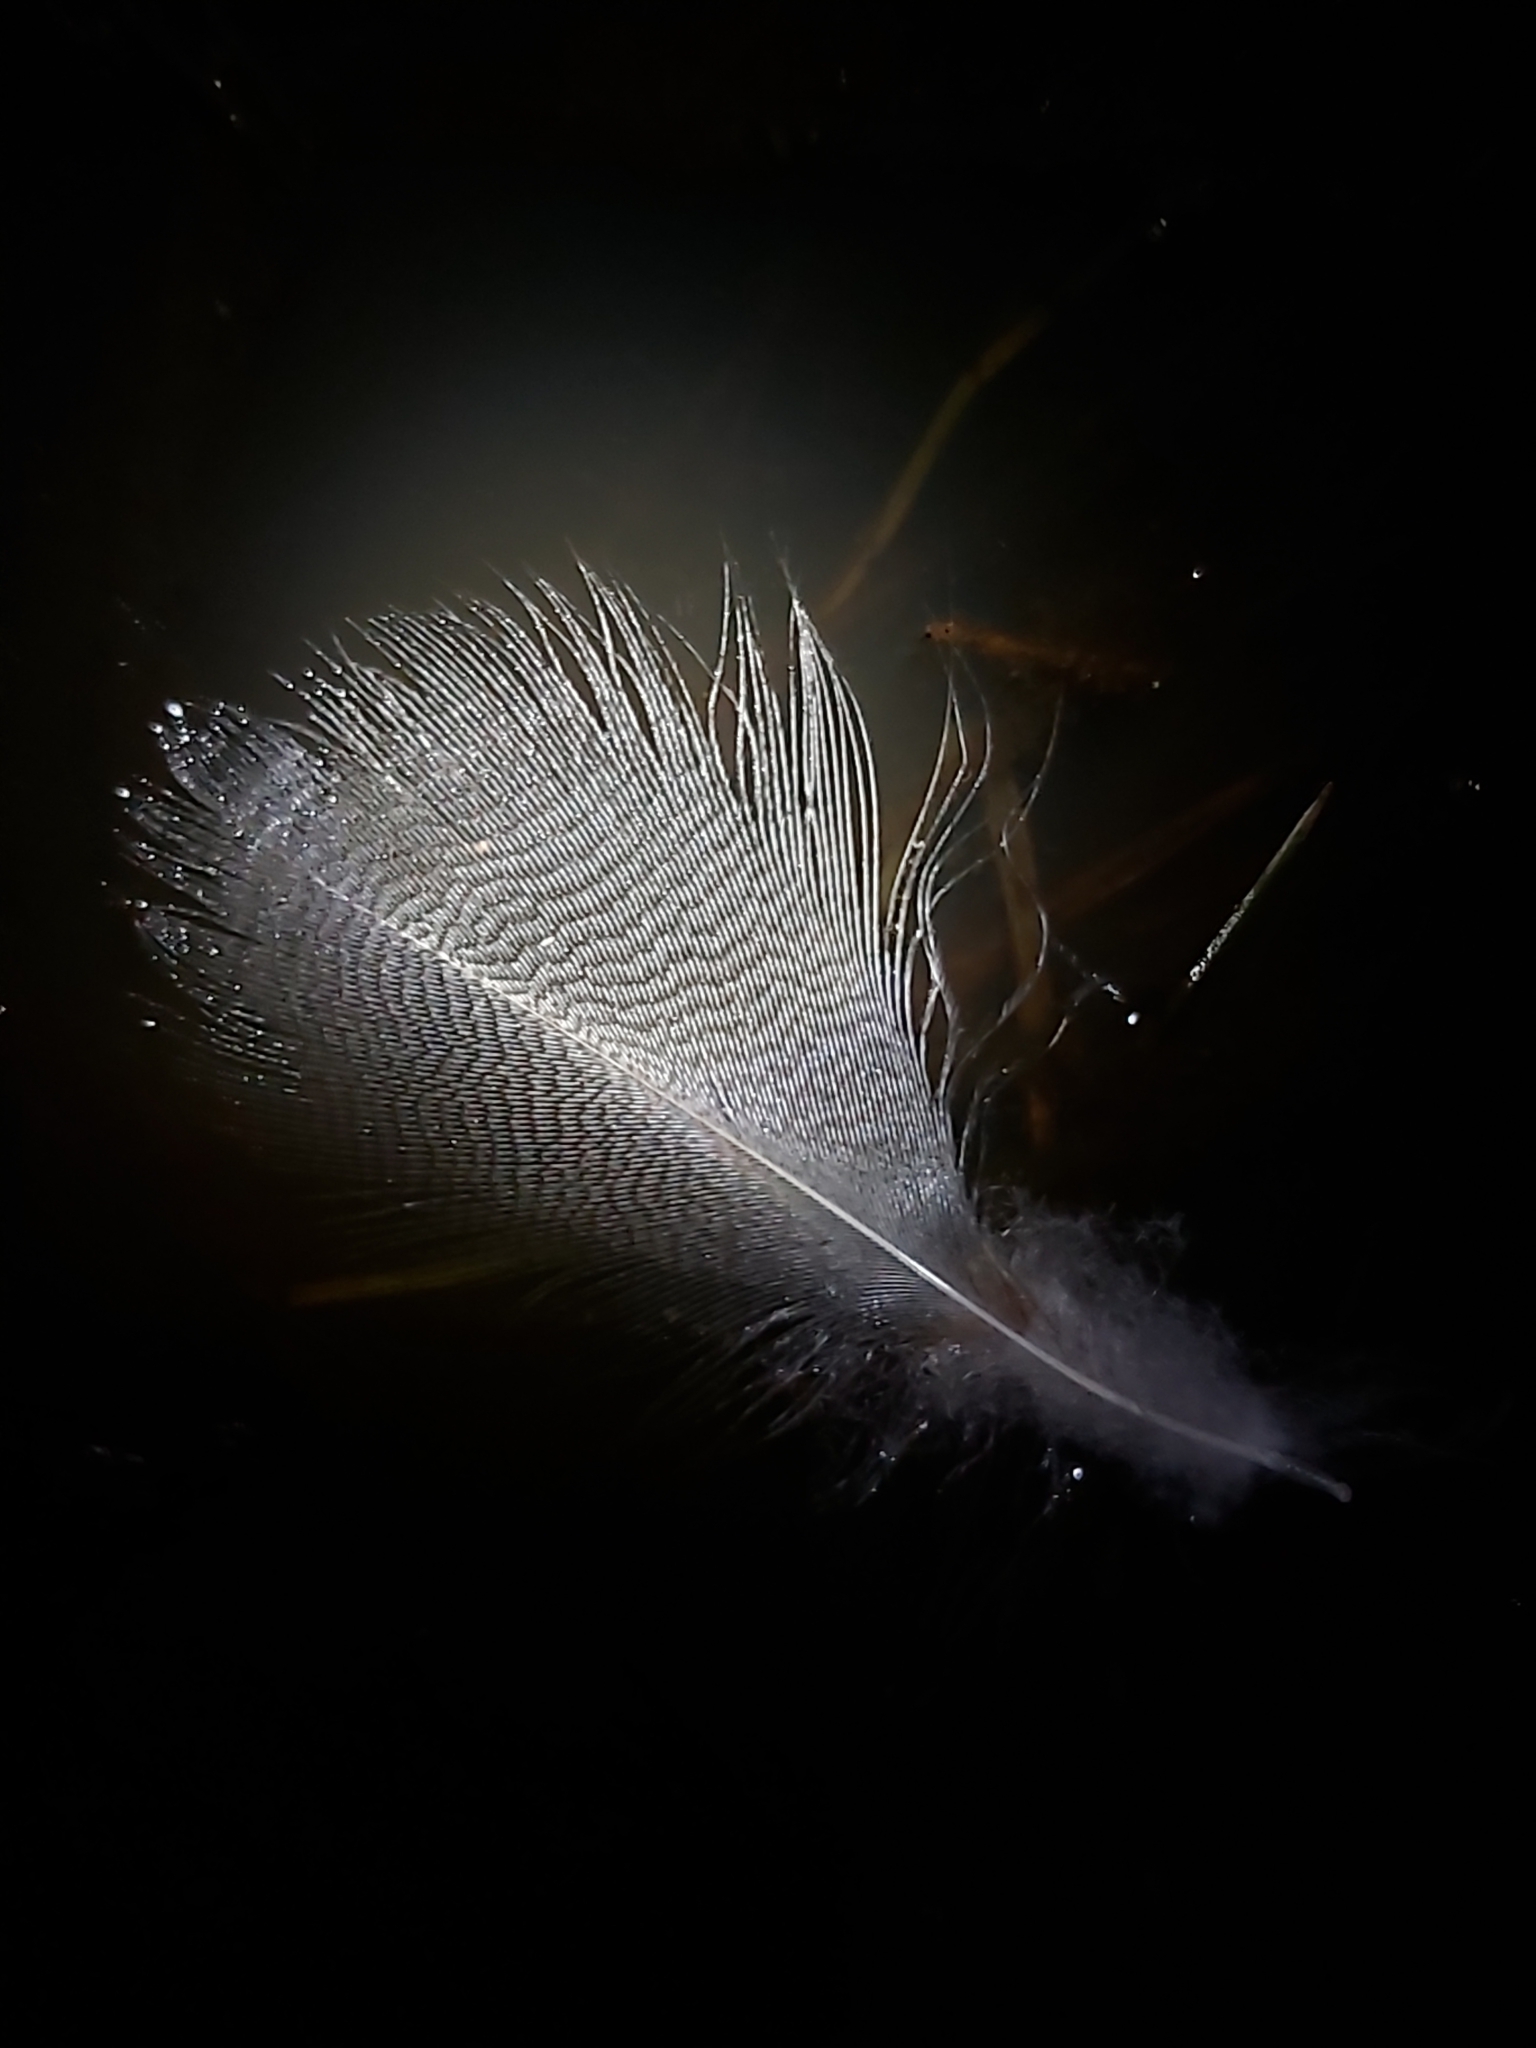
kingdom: Animalia
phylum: Chordata
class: Aves
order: Anseriformes
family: Anatidae
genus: Chenonetta
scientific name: Chenonetta jubata
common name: Maned duck
